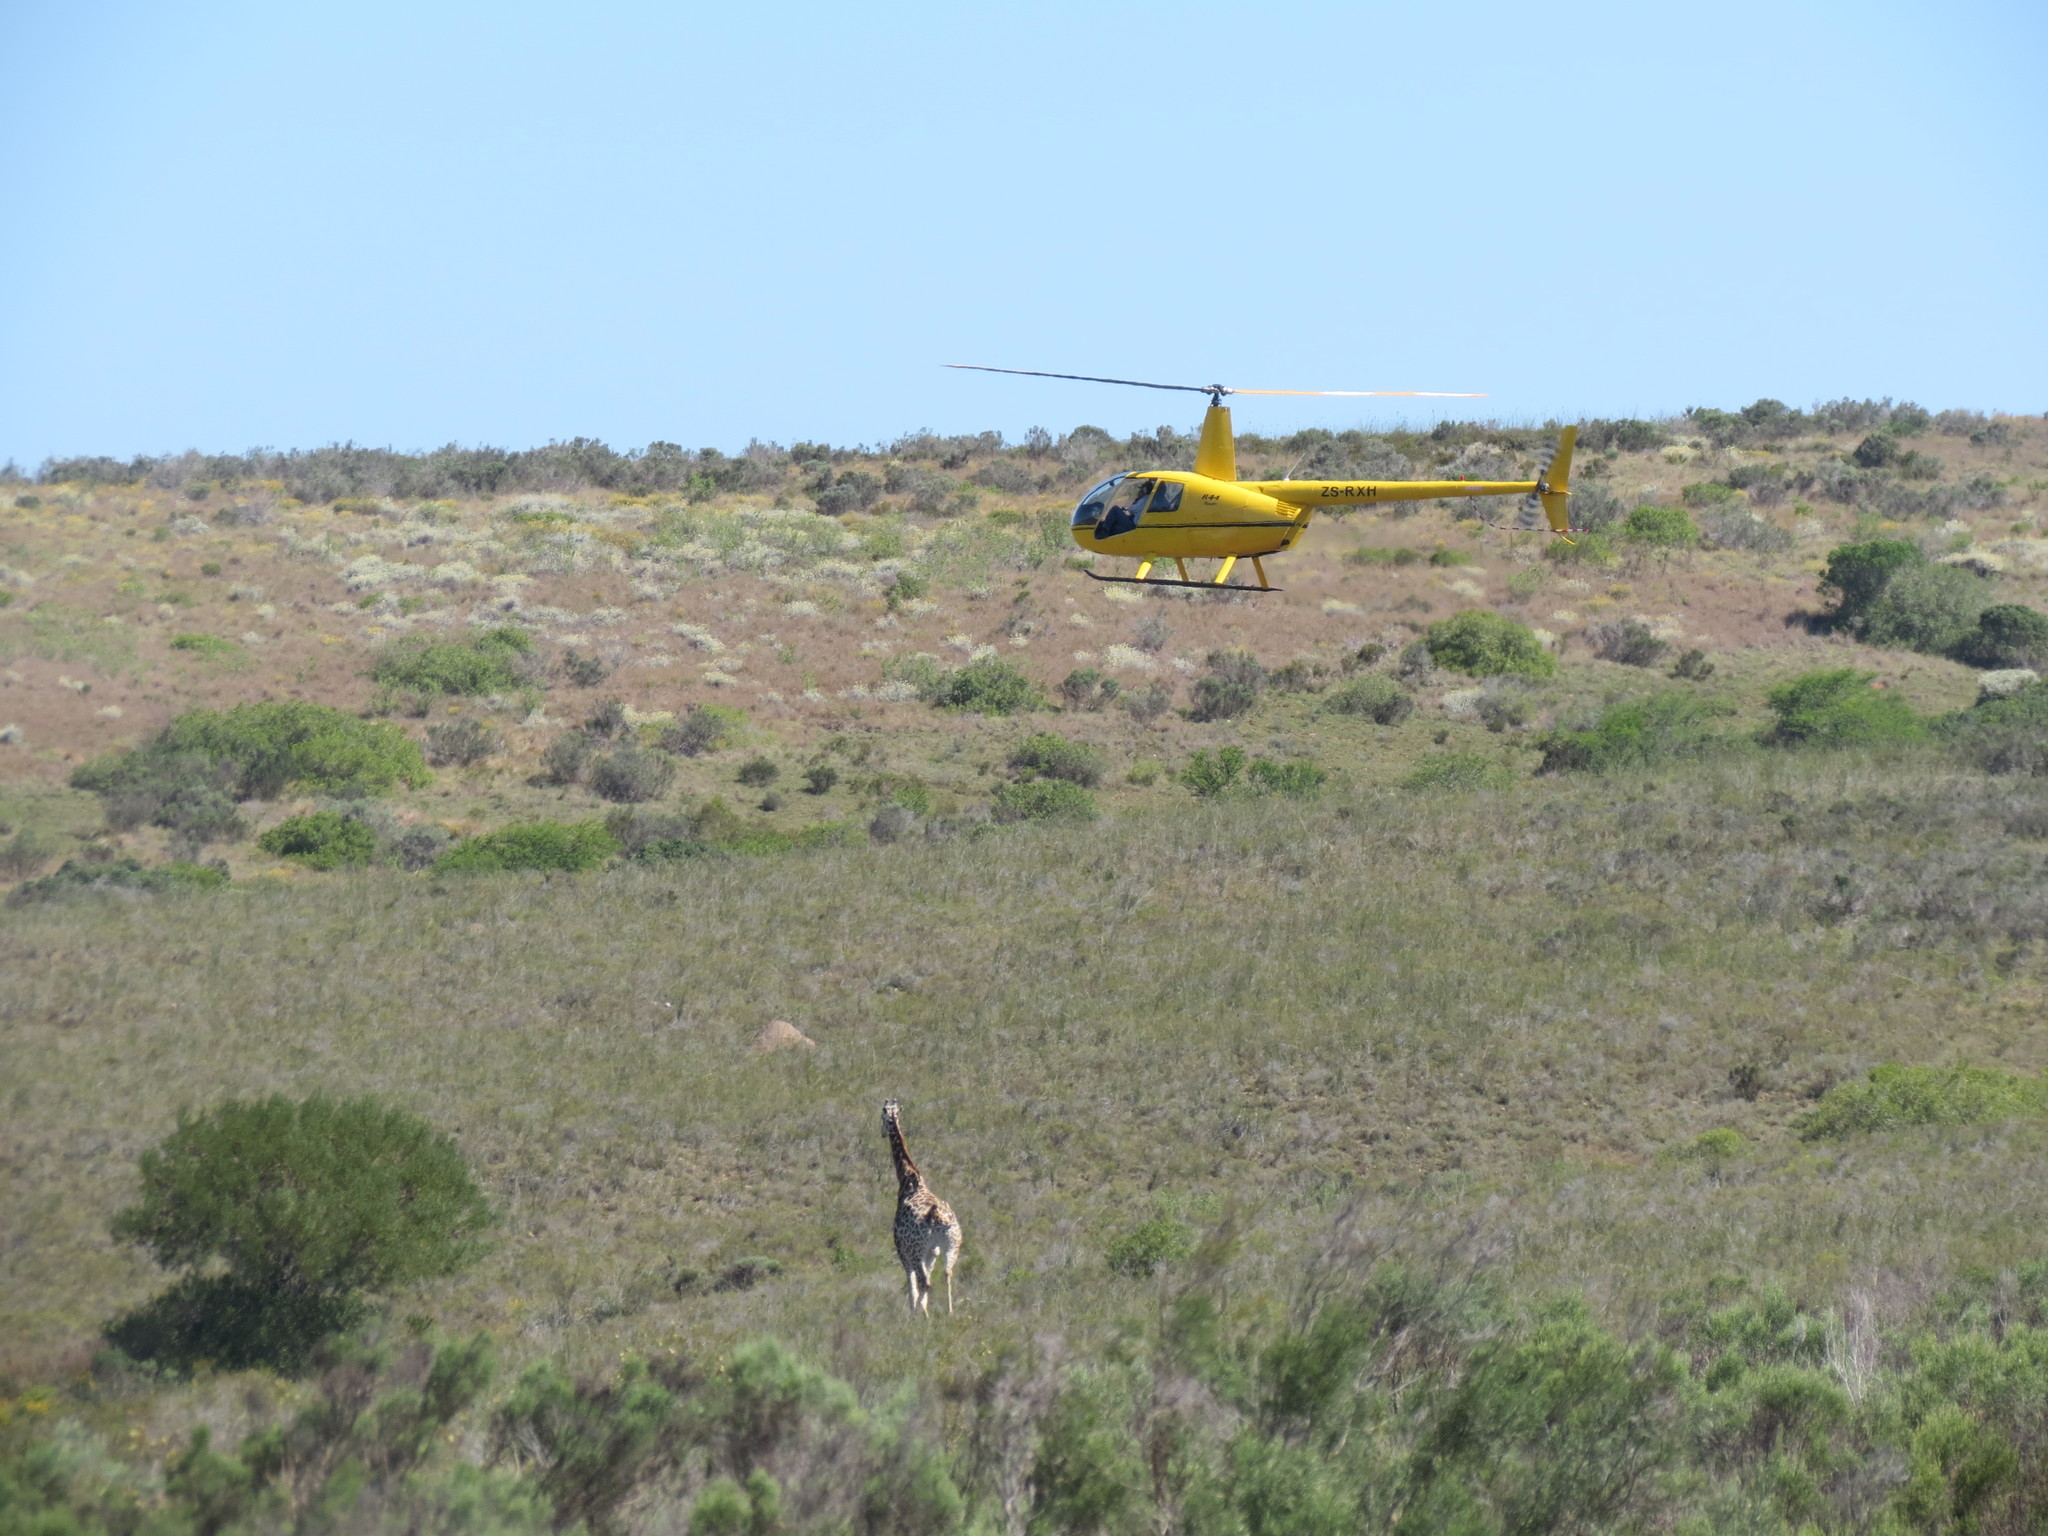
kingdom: Animalia
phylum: Chordata
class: Mammalia
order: Artiodactyla
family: Giraffidae
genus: Giraffa
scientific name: Giraffa giraffa
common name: Southern giraffe
